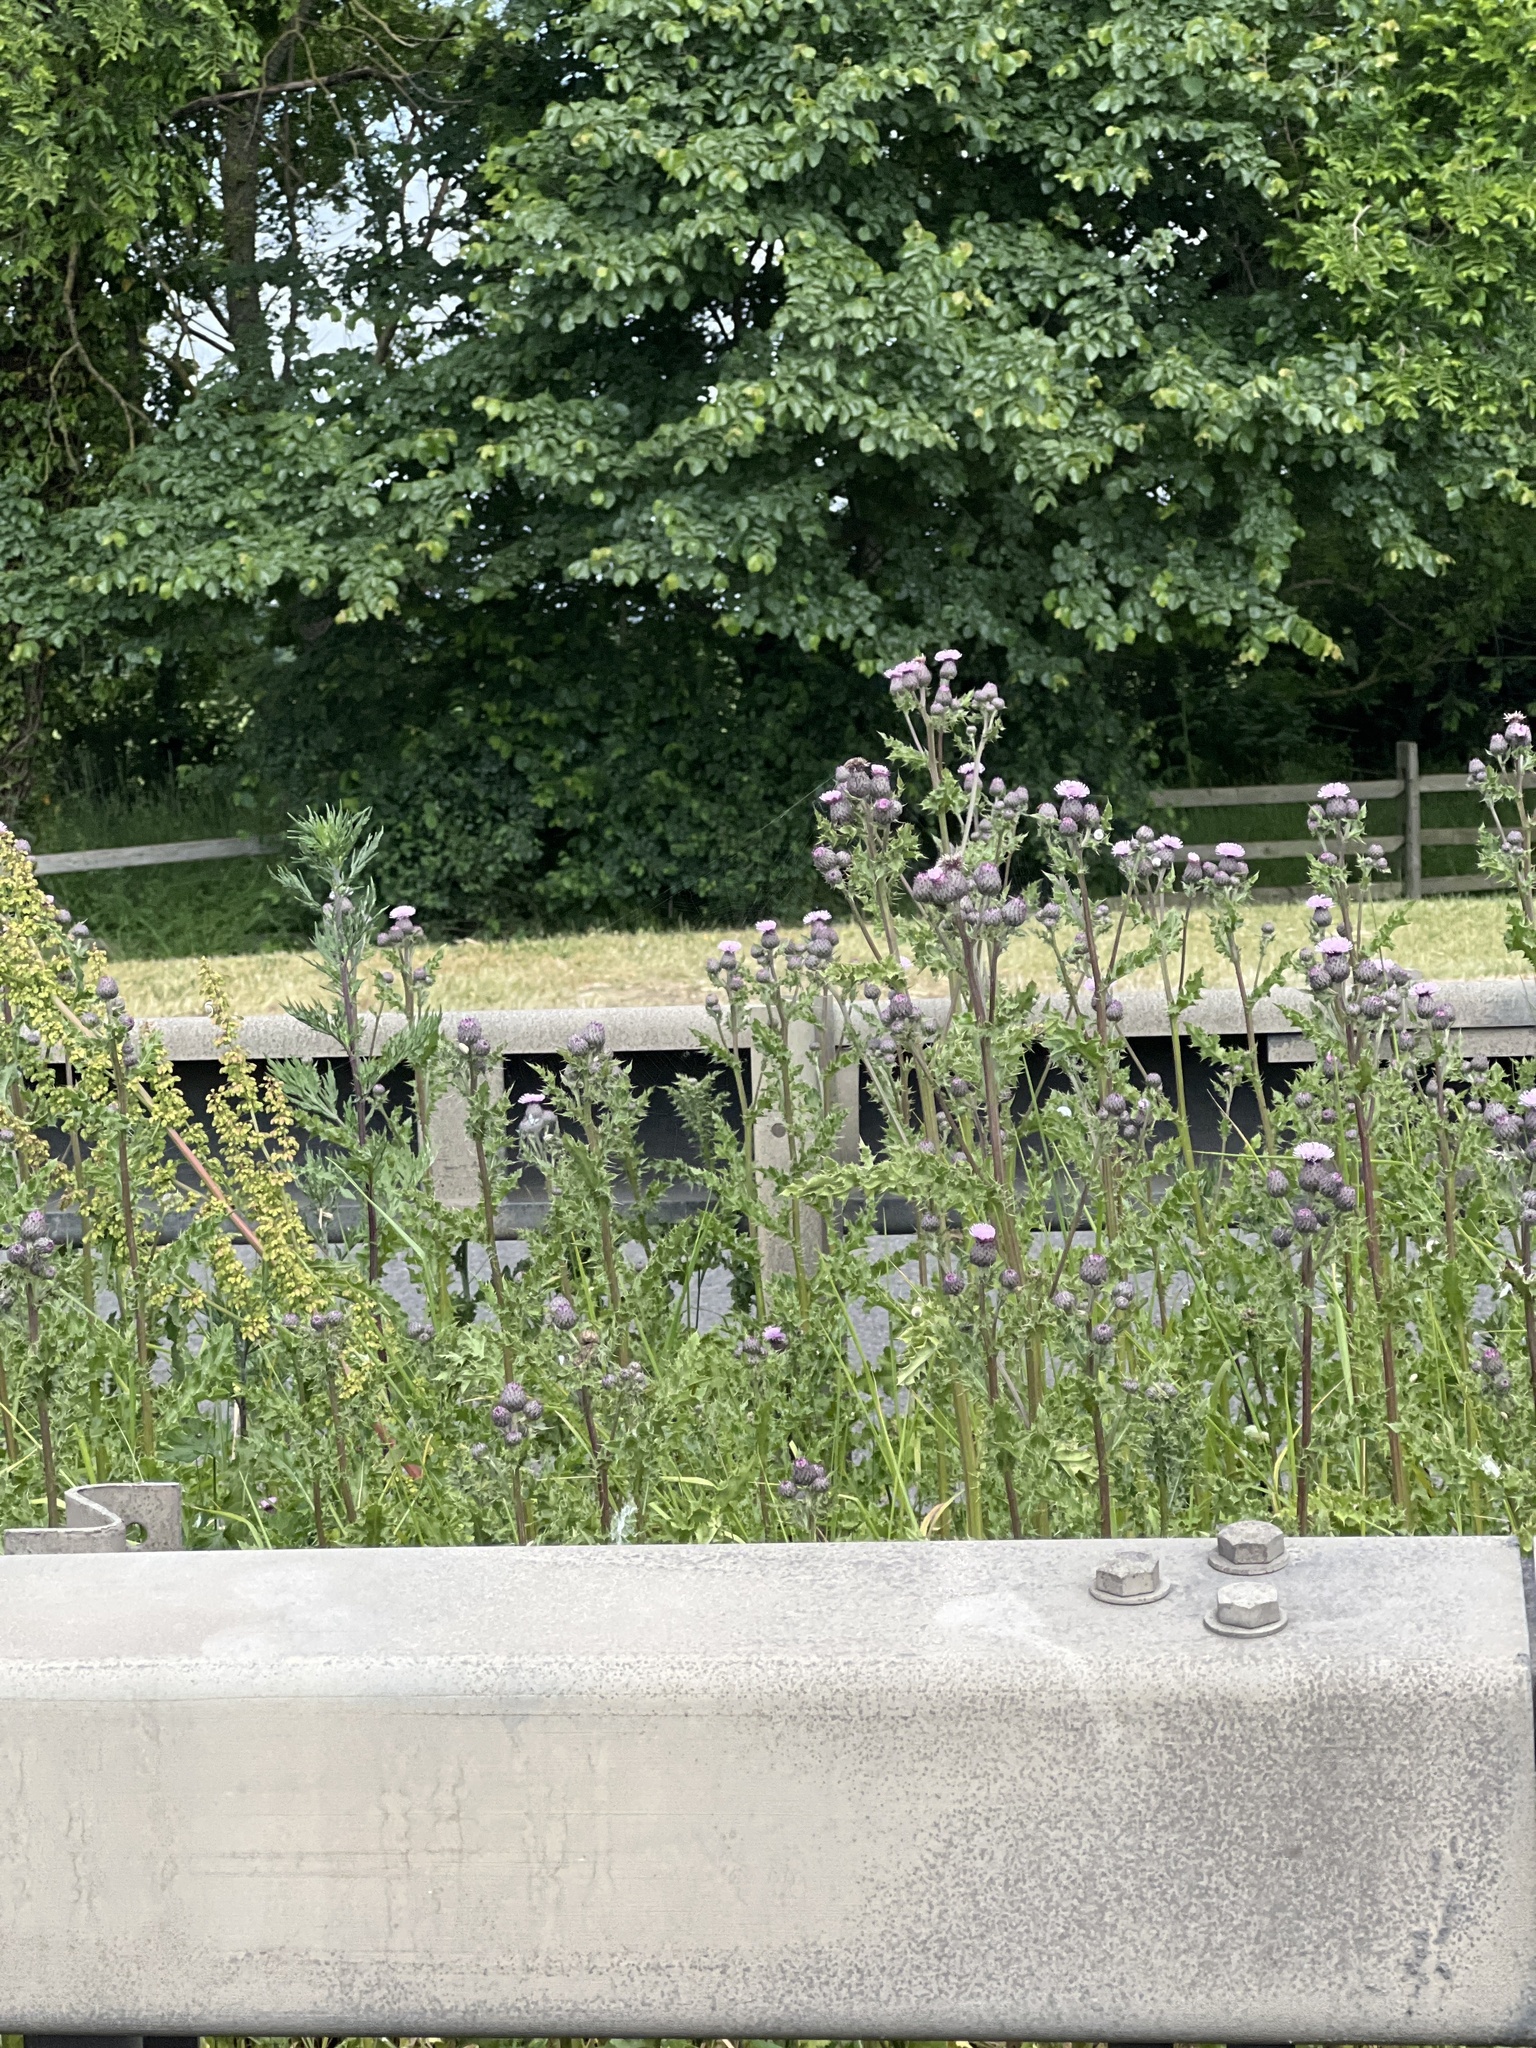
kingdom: Plantae
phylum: Tracheophyta
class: Magnoliopsida
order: Boraginales
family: Hydrophyllaceae
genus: Phacelia
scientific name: Phacelia tanacetifolia
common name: Phacelia
